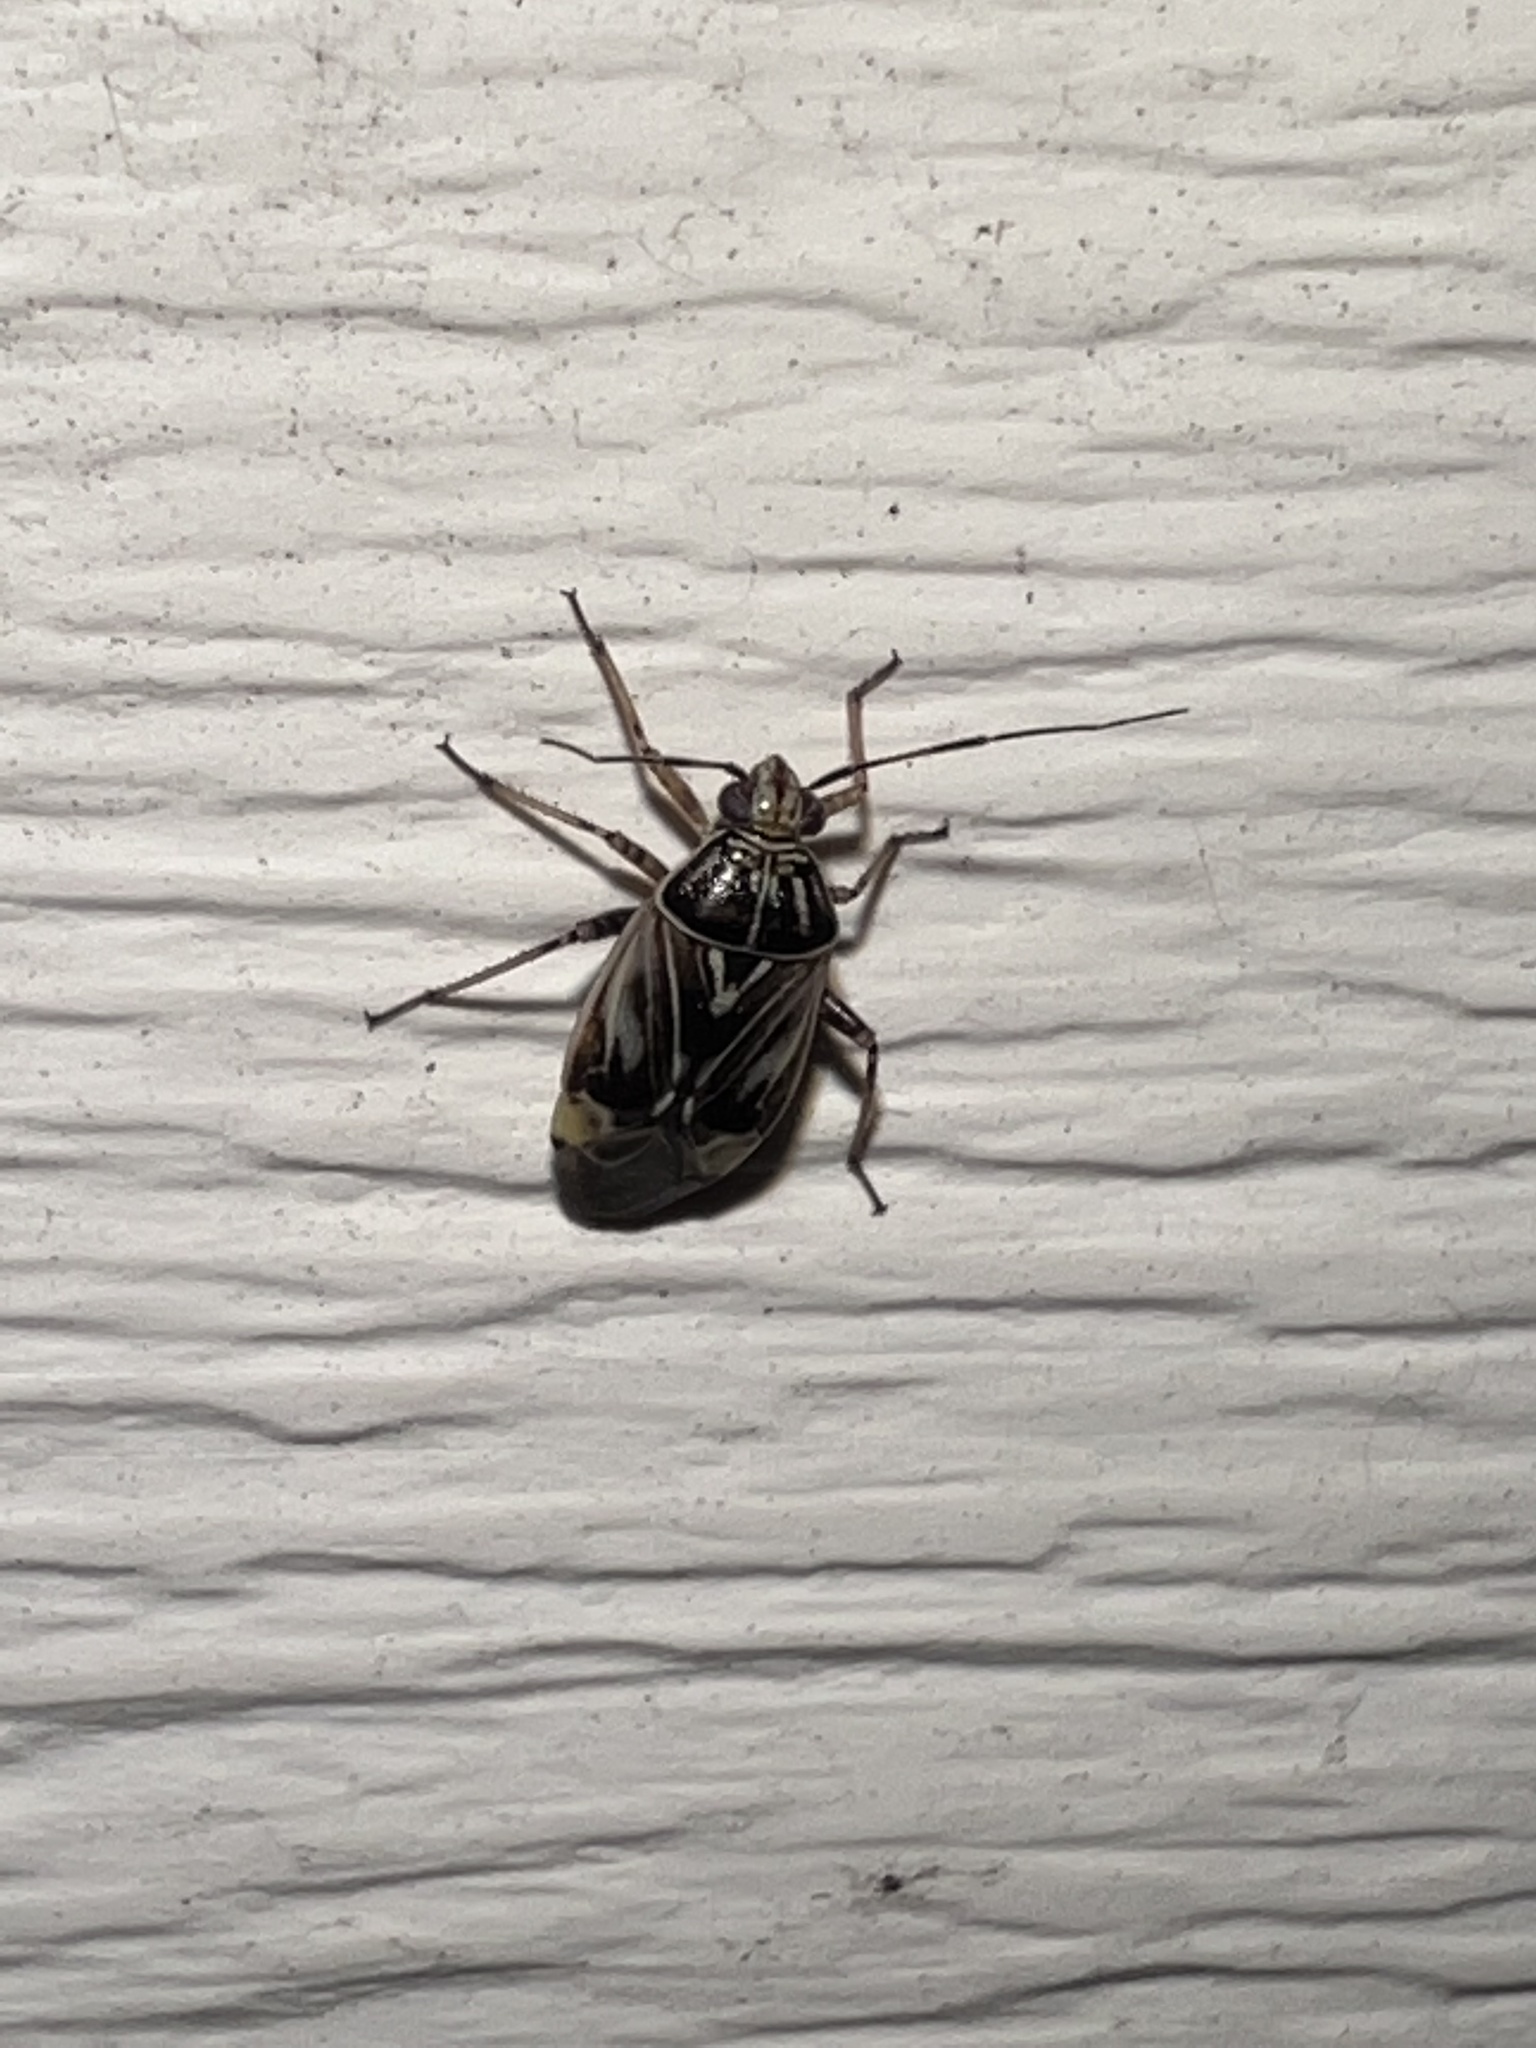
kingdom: Animalia
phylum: Arthropoda
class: Insecta
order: Hemiptera
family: Miridae
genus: Lygus
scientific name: Lygus lineolaris
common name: North american tarnished plant bug
